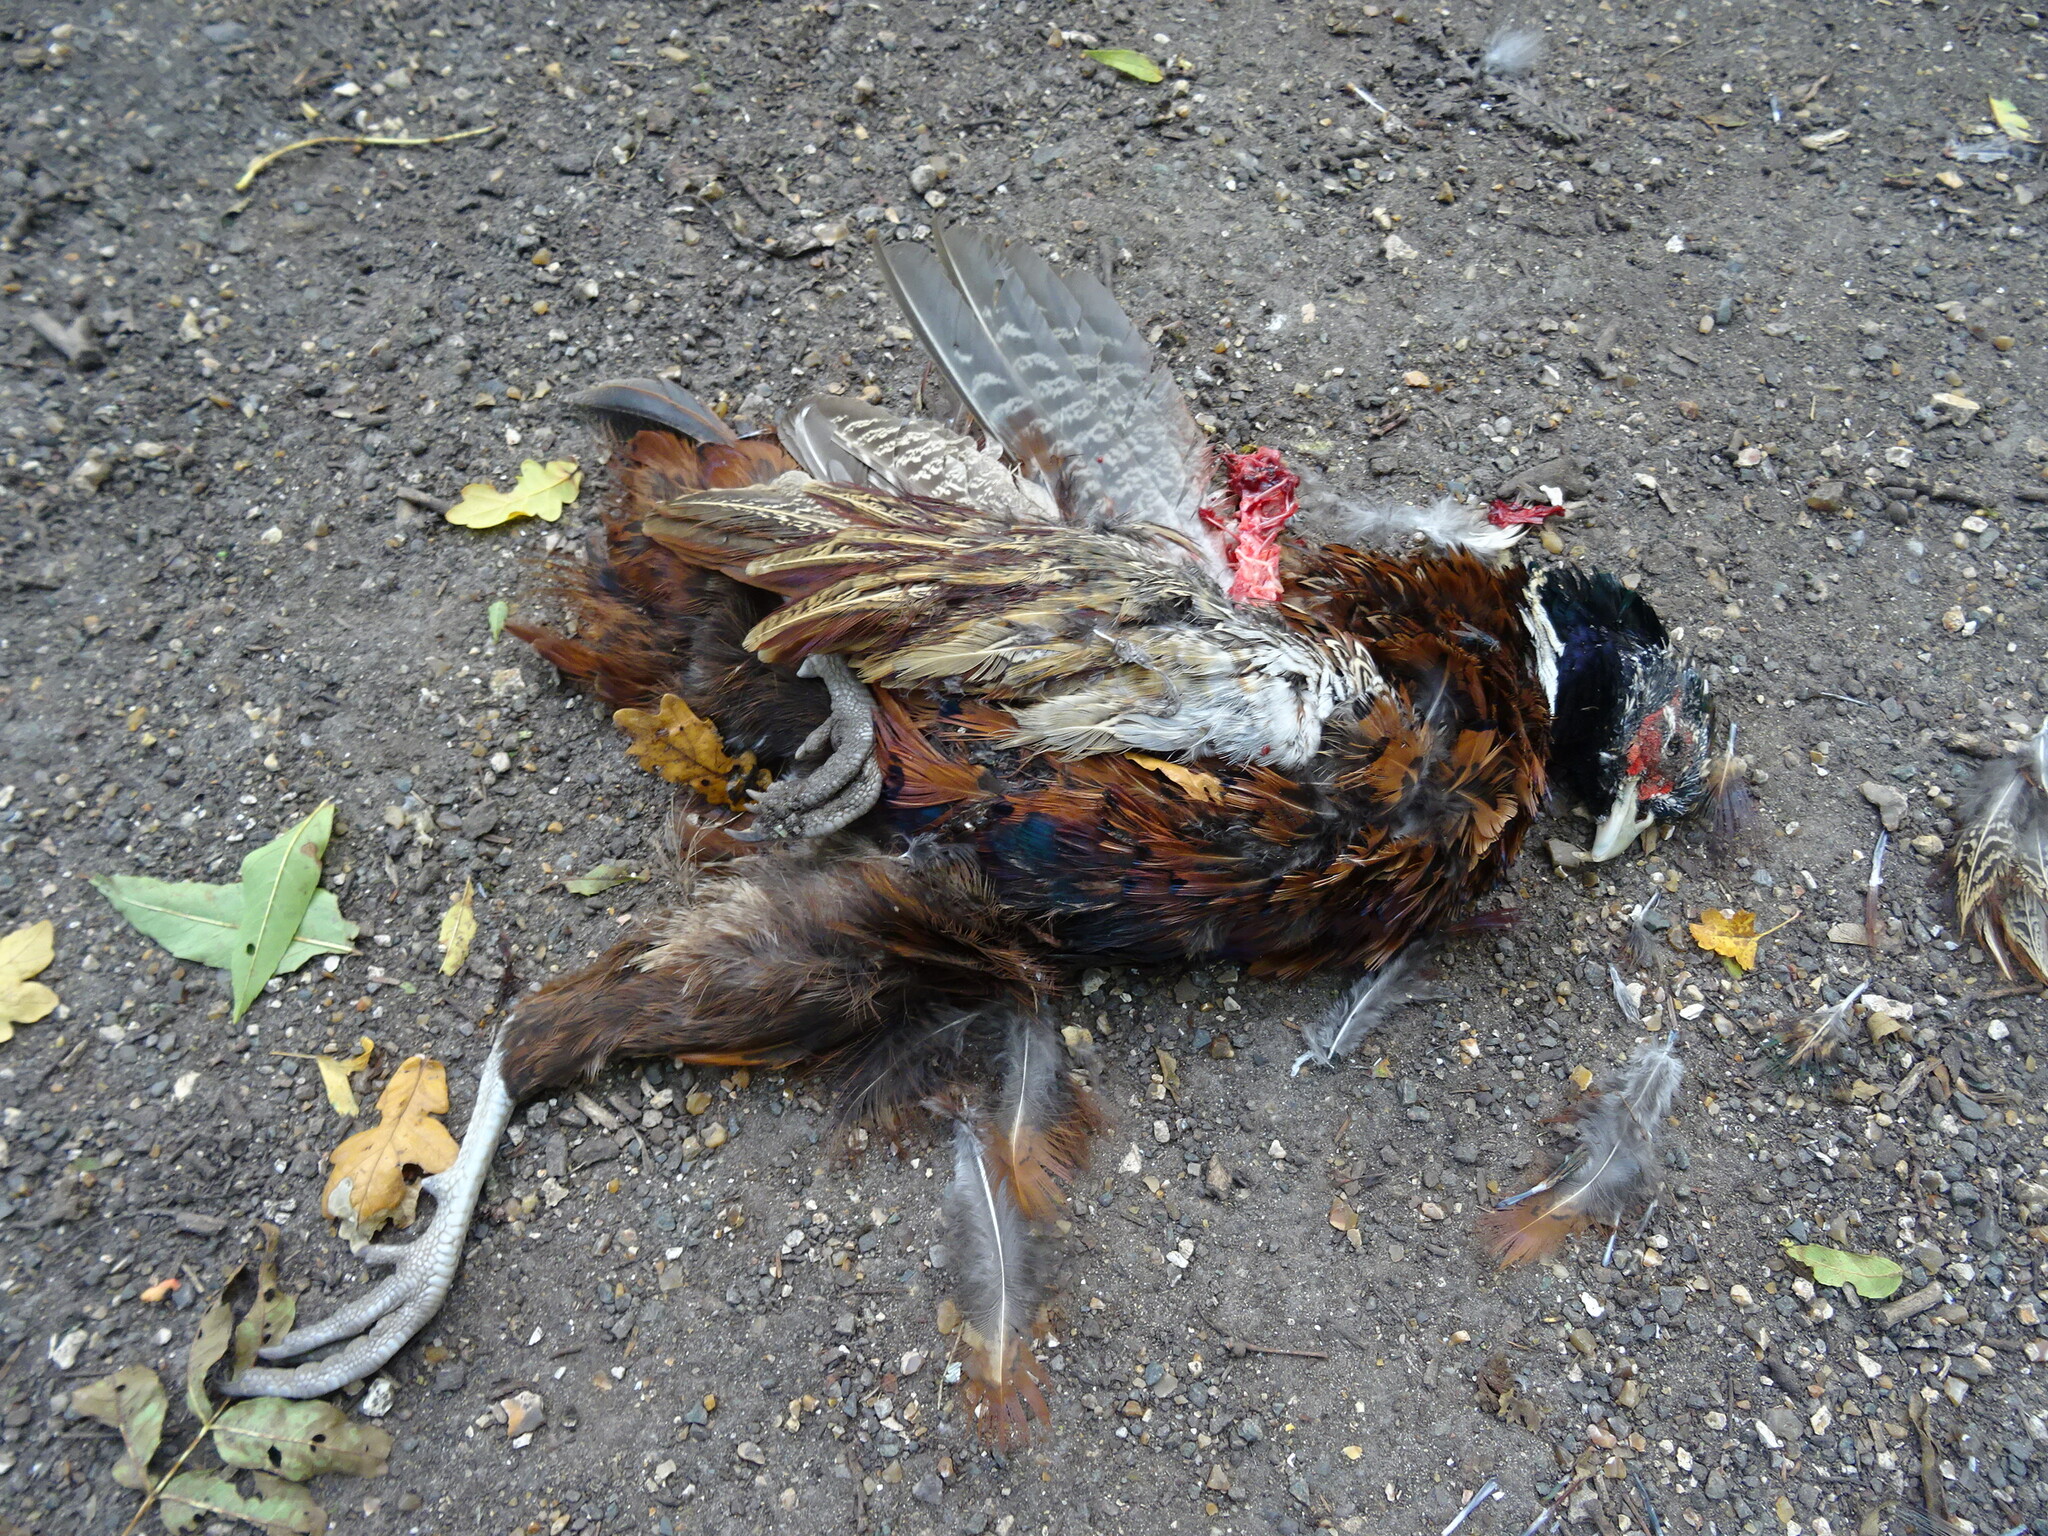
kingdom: Animalia
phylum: Chordata
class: Aves
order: Galliformes
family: Phasianidae
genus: Phasianus
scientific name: Phasianus colchicus
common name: Common pheasant
